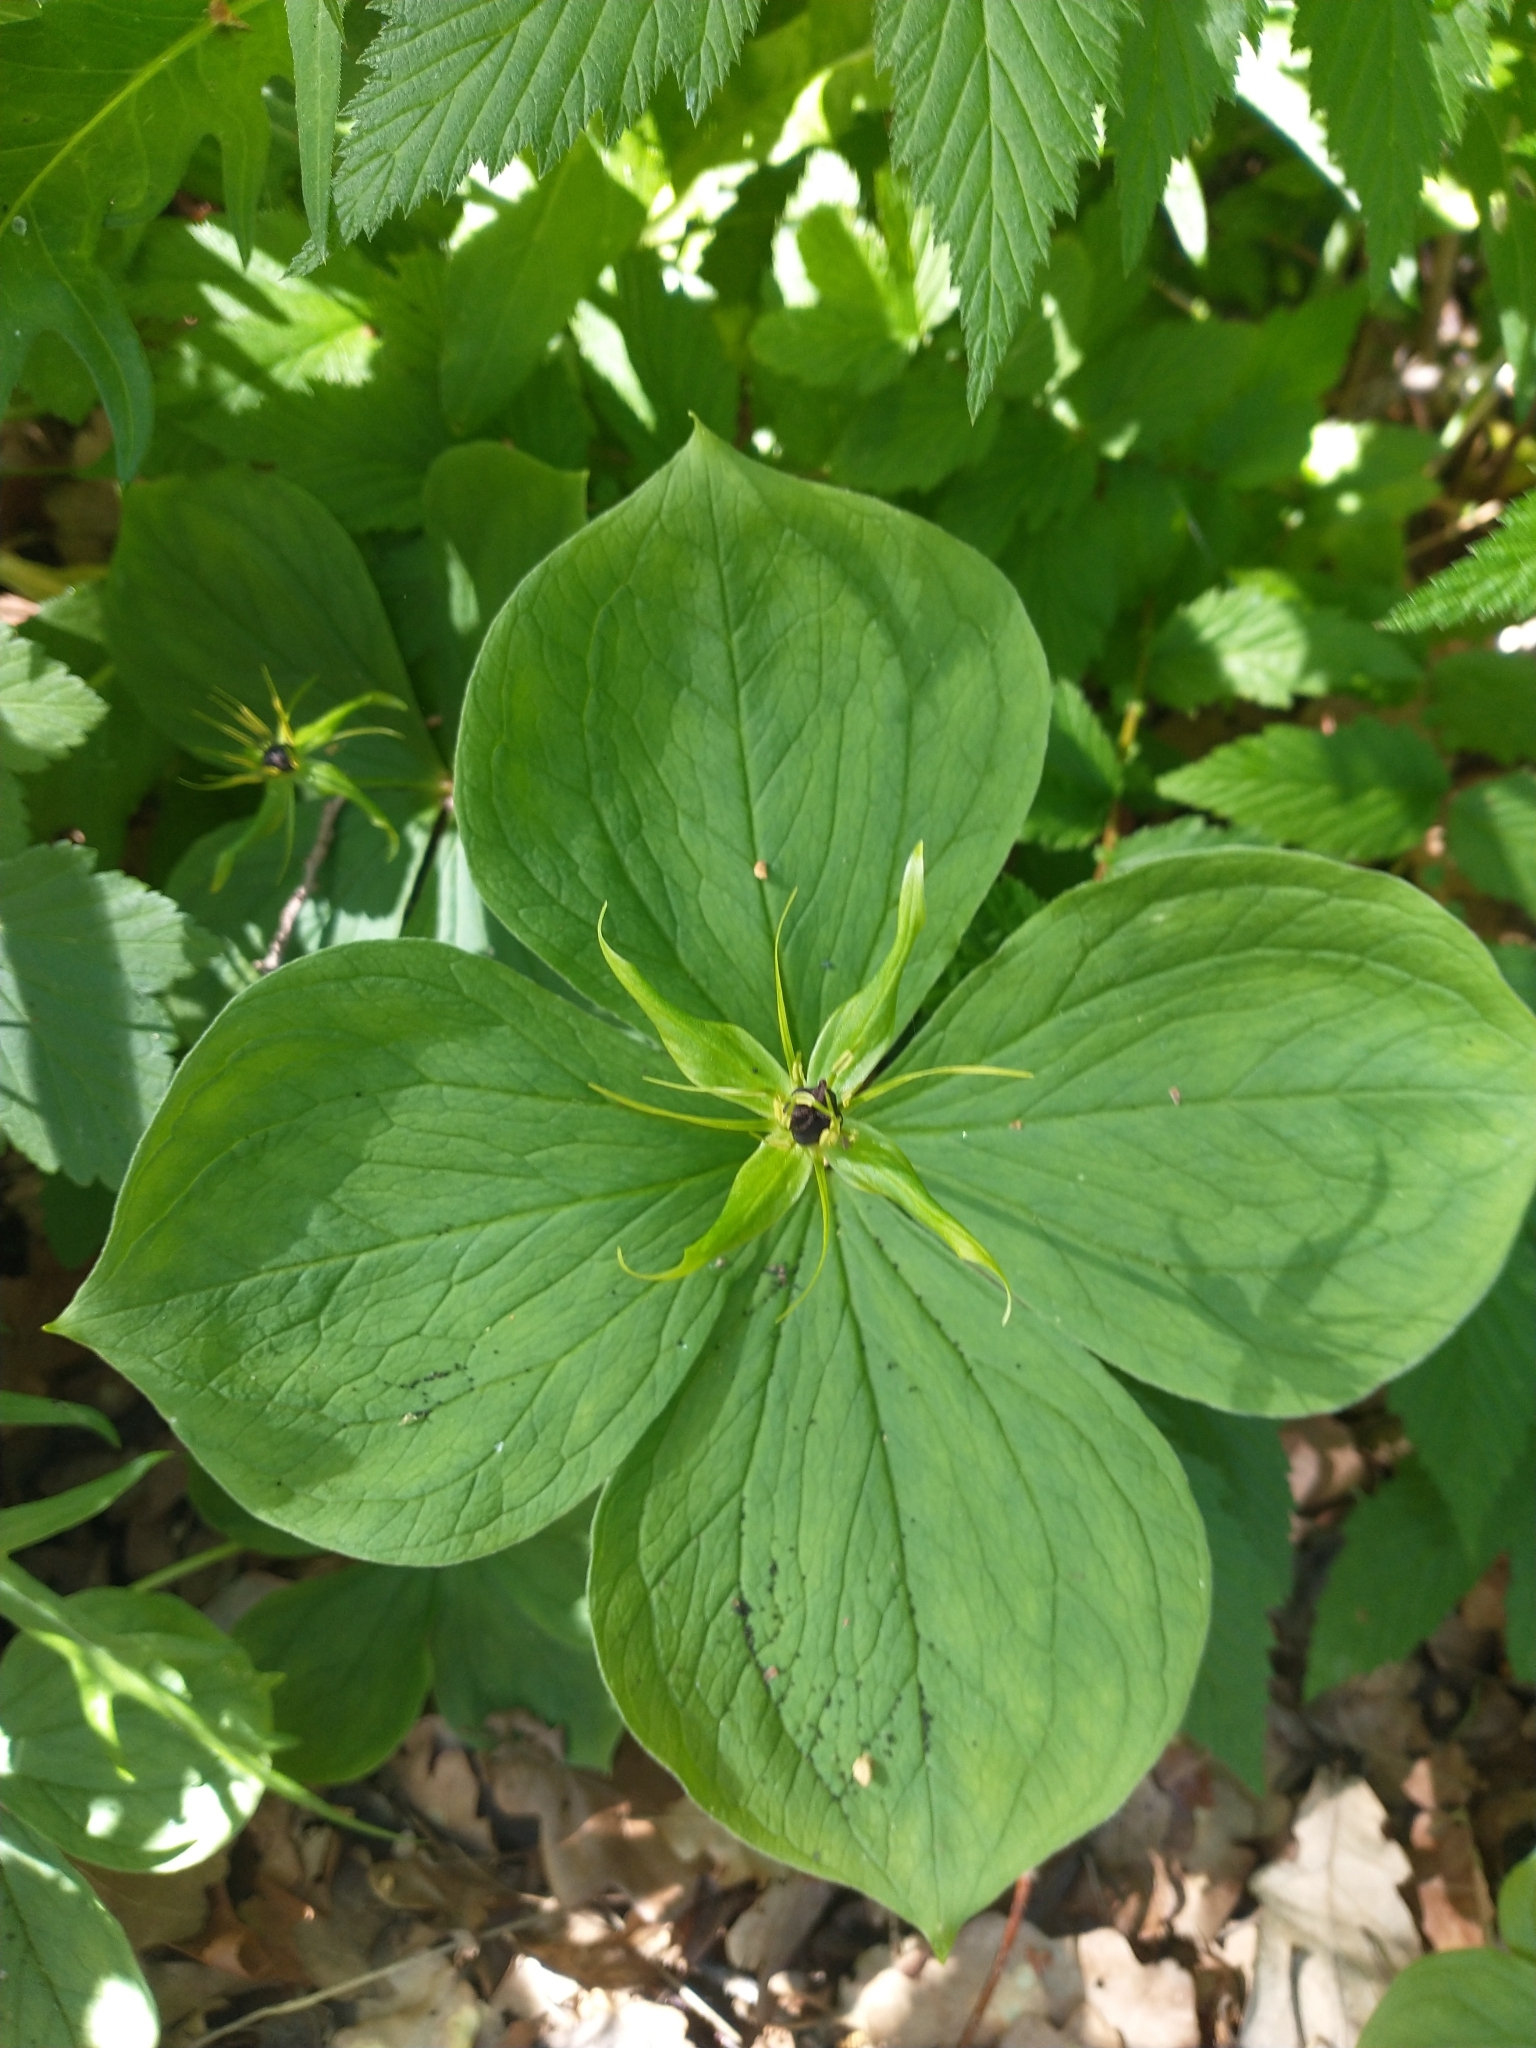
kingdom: Plantae
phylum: Tracheophyta
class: Liliopsida
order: Liliales
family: Melanthiaceae
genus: Paris
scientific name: Paris quadrifolia
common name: Herb-paris
